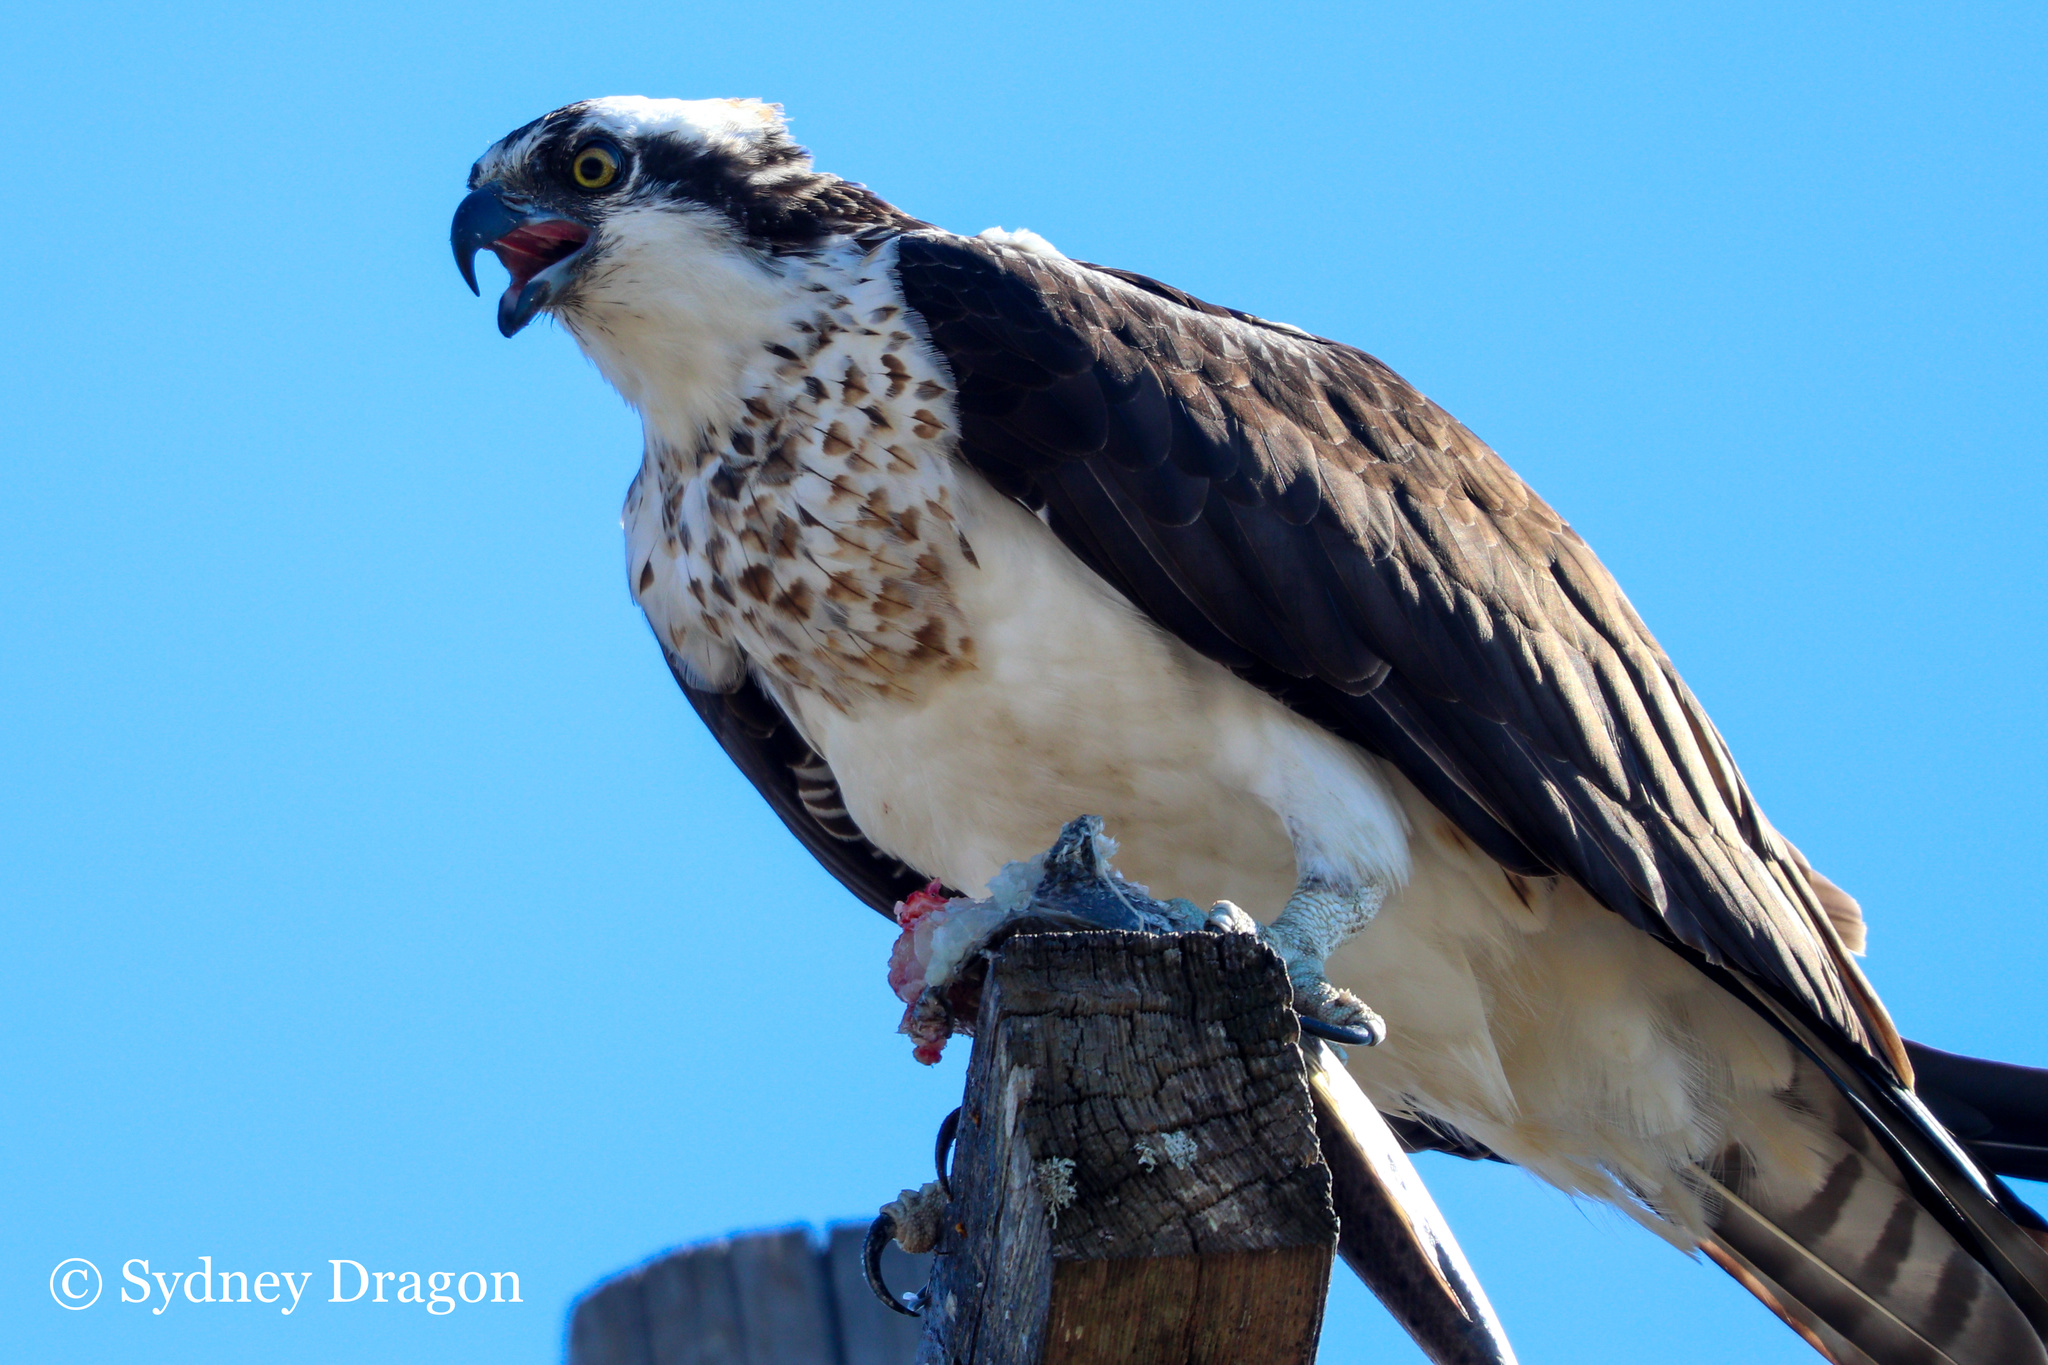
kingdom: Animalia
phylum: Chordata
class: Aves
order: Accipitriformes
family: Pandionidae
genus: Pandion
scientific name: Pandion haliaetus
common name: Osprey
